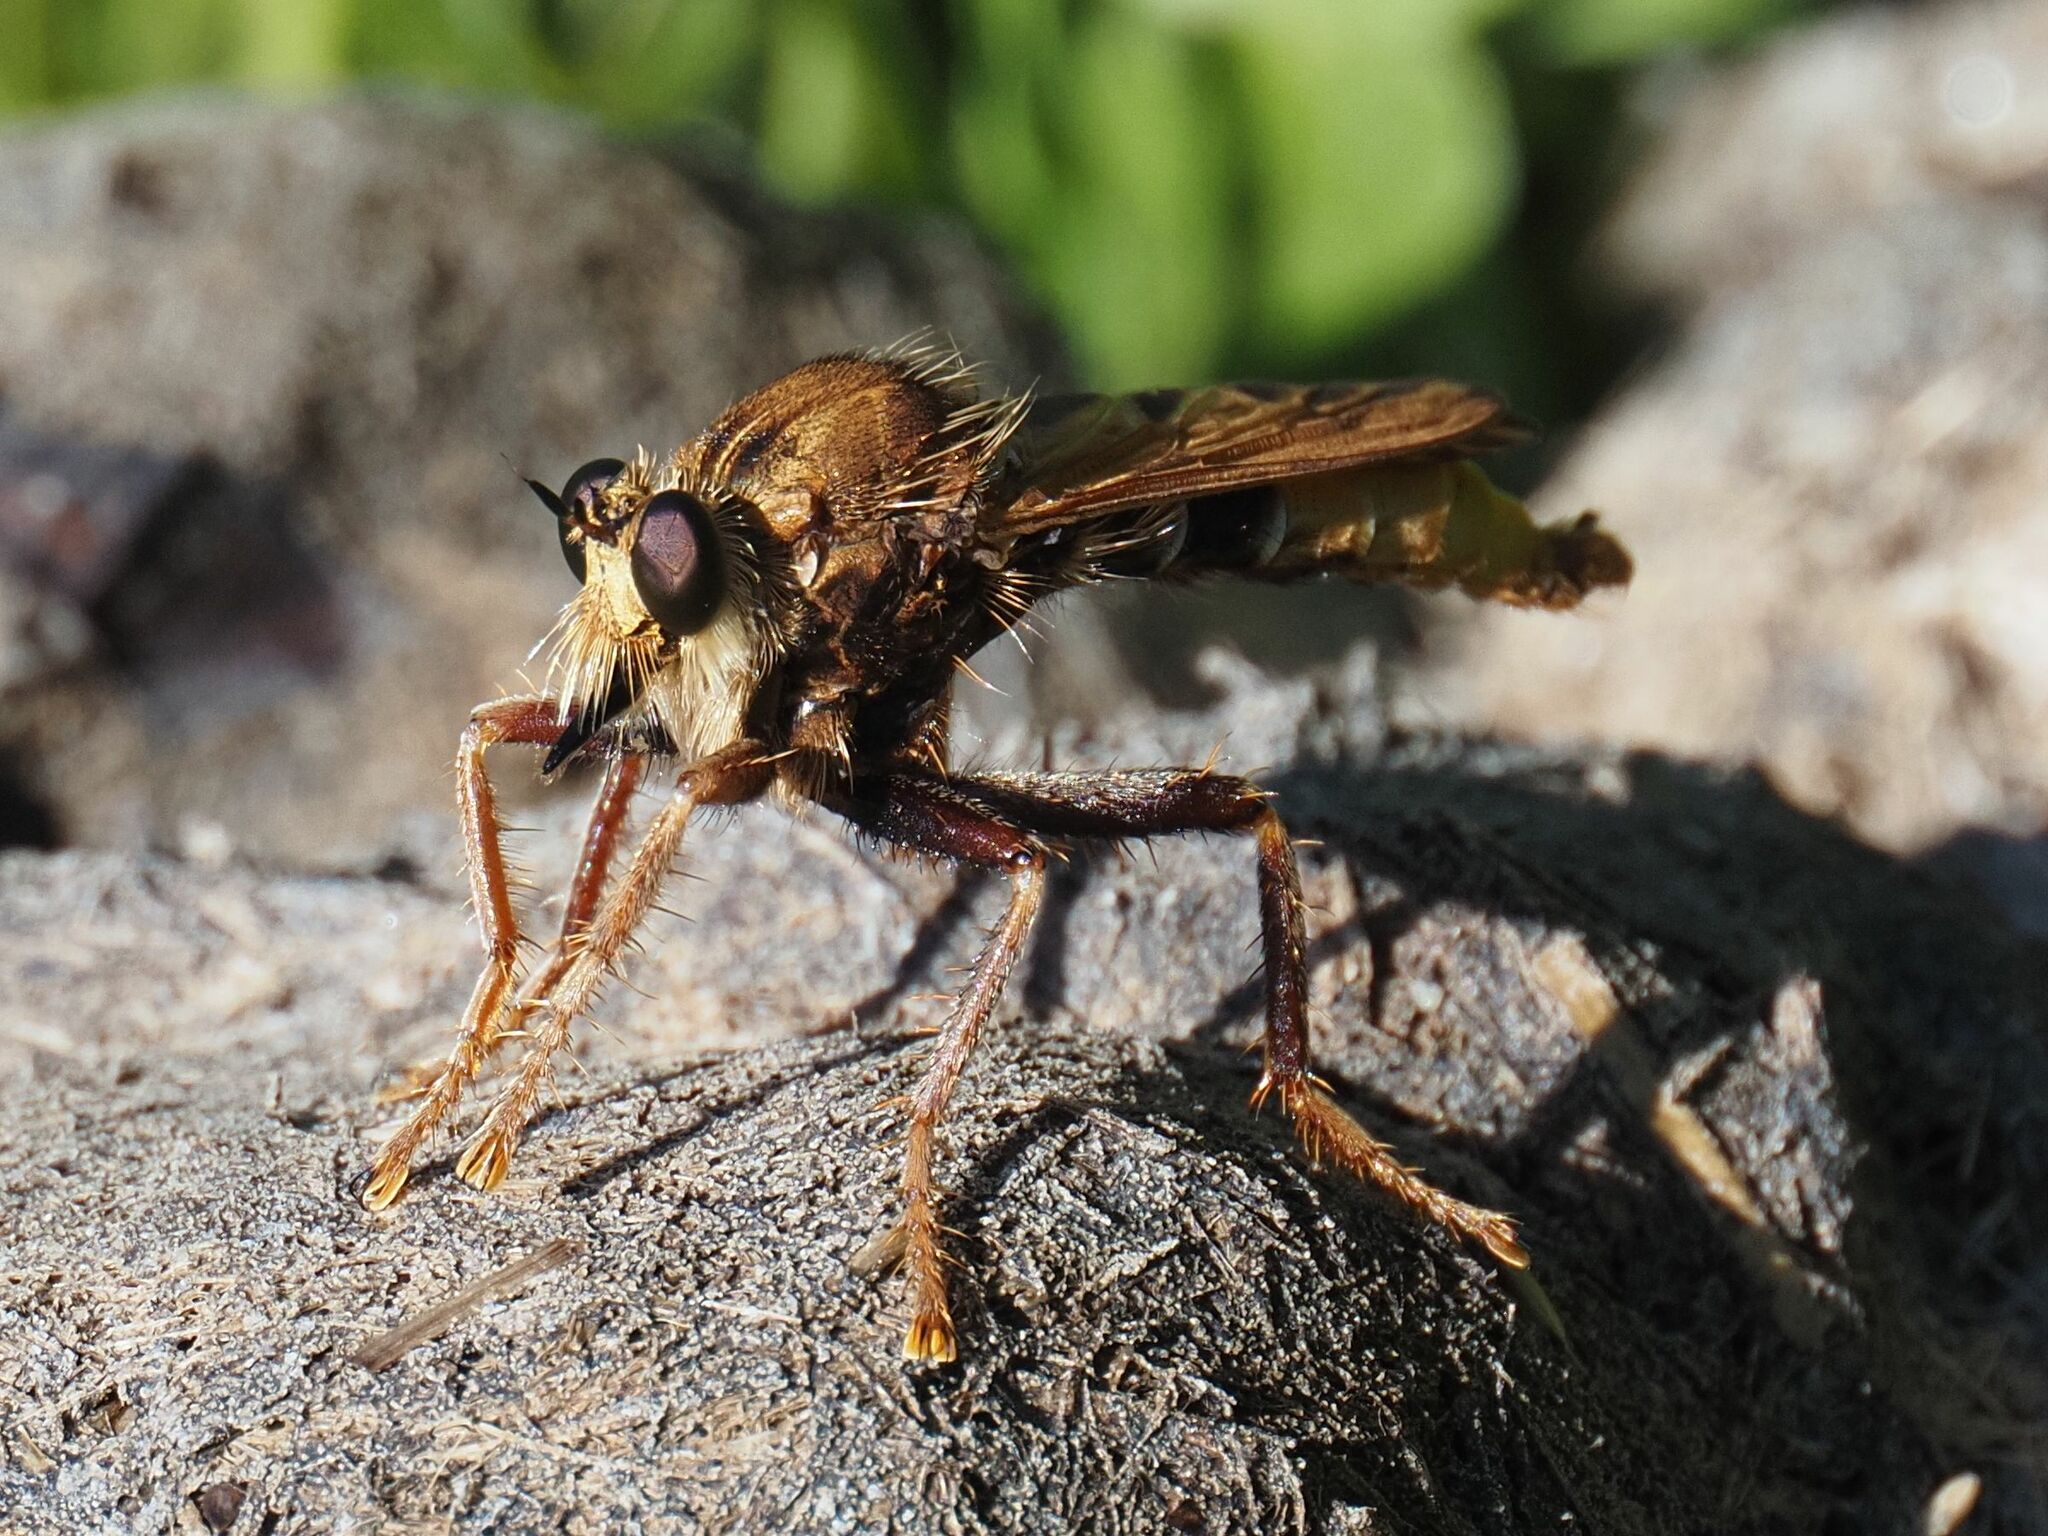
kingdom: Animalia
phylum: Arthropoda
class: Insecta
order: Diptera
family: Asilidae
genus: Asilus
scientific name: Asilus crabroniformis
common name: Hornet robberfly
